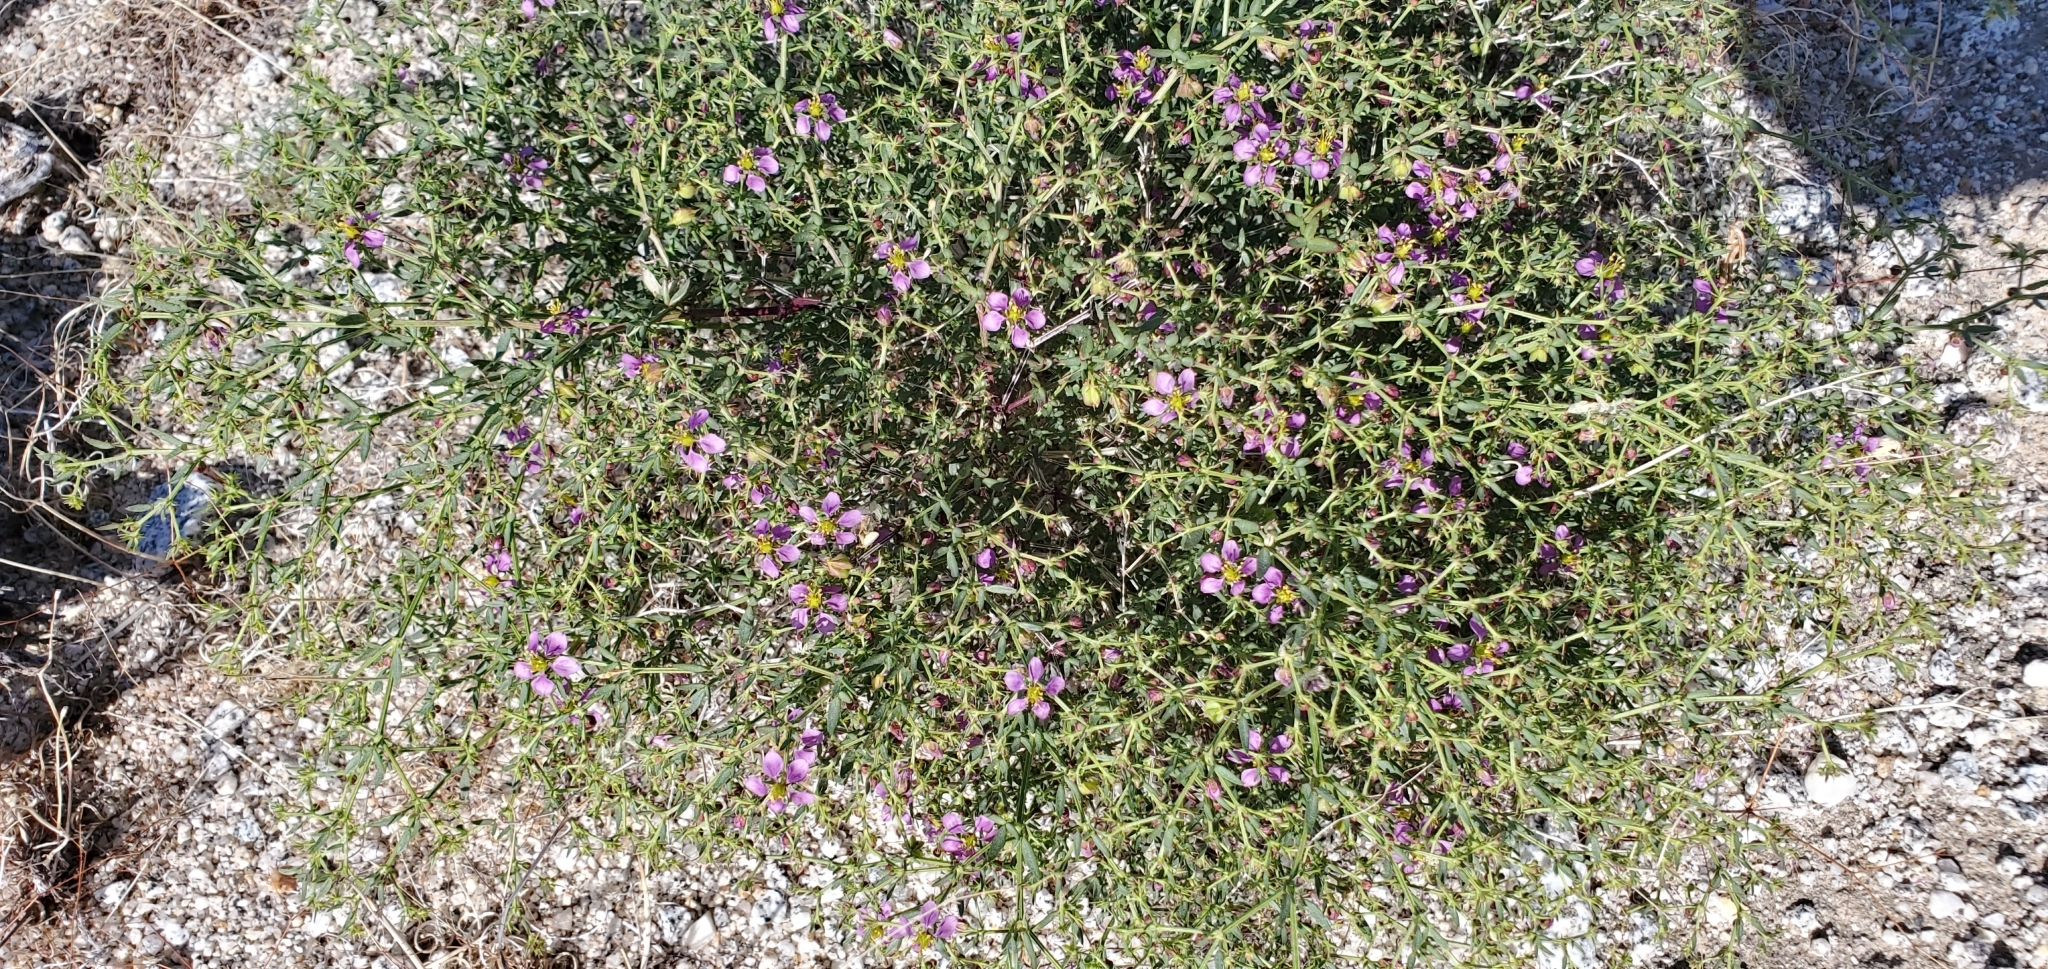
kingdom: Plantae
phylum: Tracheophyta
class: Magnoliopsida
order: Zygophyllales
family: Zygophyllaceae
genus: Fagonia
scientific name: Fagonia laevis
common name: California fagonbush
